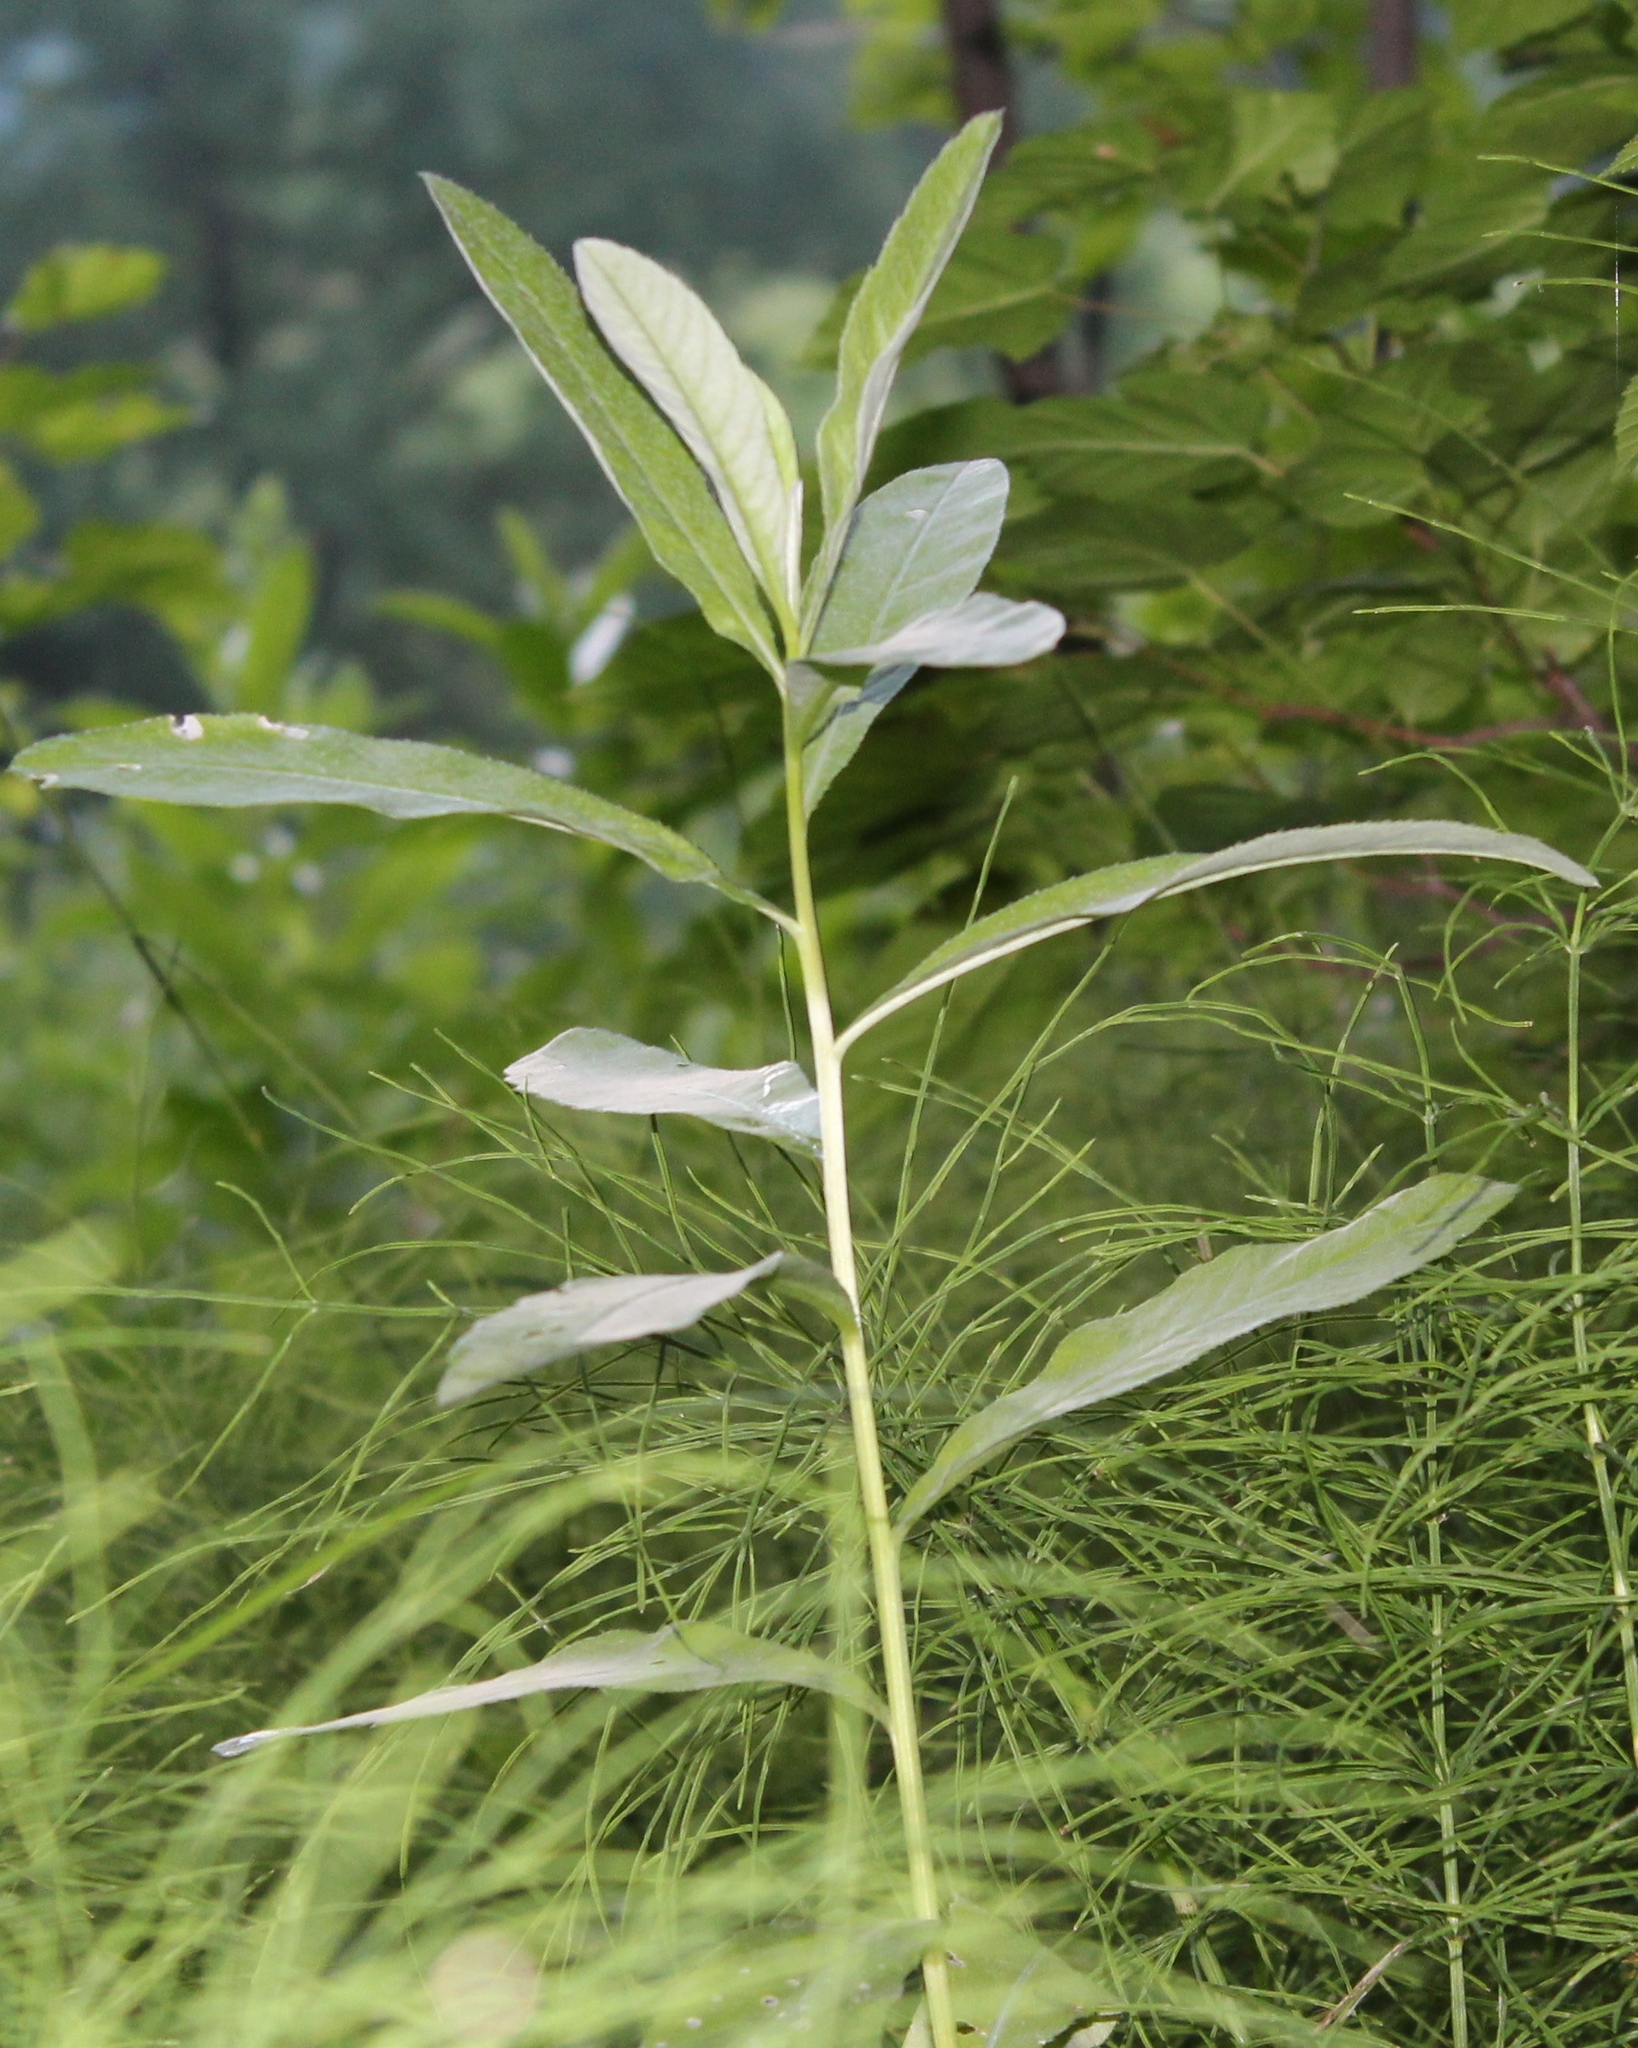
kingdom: Plantae
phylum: Tracheophyta
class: Magnoliopsida
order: Asterales
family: Asteraceae
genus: Cirsium
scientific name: Cirsium arvense
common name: Creeping thistle
